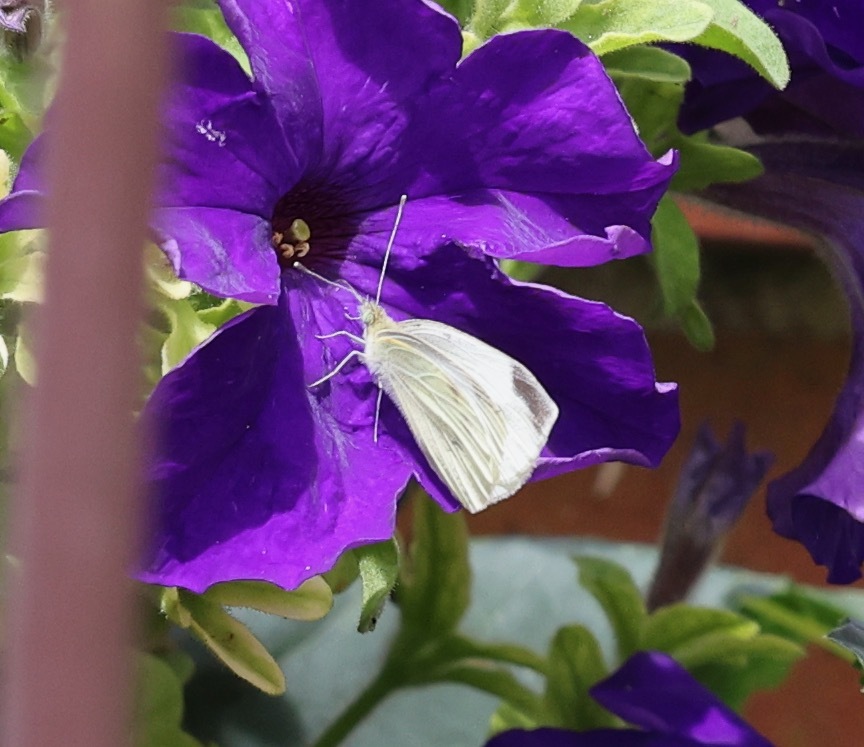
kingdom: Animalia
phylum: Arthropoda
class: Insecta
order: Lepidoptera
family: Pieridae
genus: Pieris
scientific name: Pieris rapae
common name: Small white
